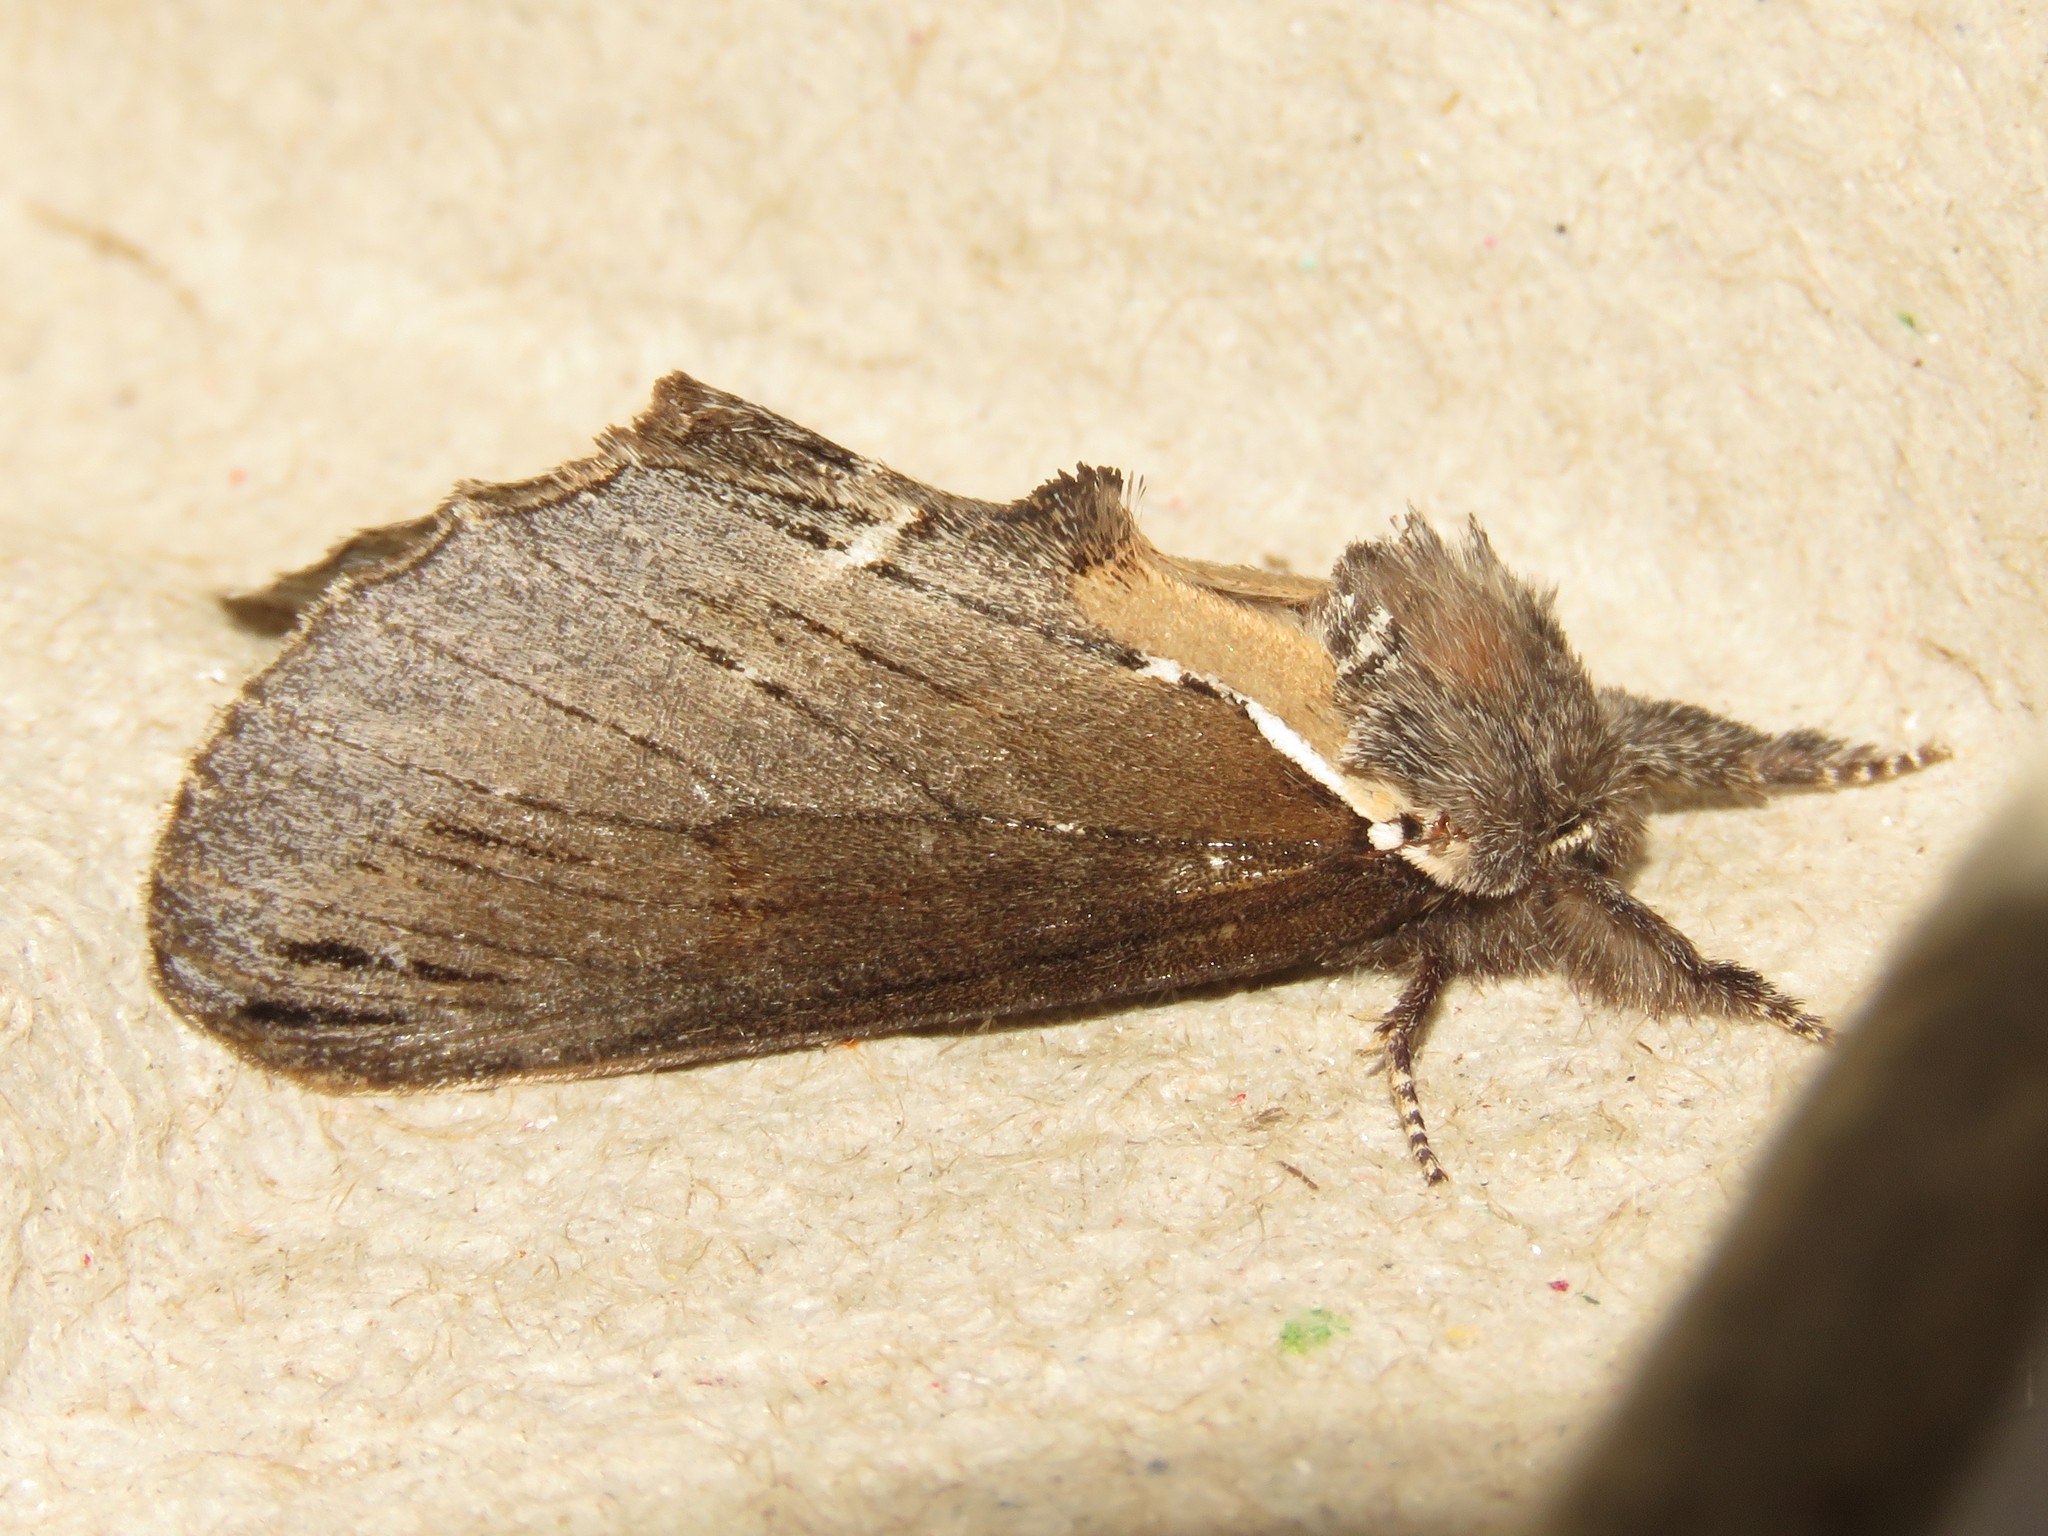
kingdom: Animalia
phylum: Arthropoda
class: Insecta
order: Lepidoptera
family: Notodontidae
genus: Pheosidea
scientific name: Pheosidea elegans
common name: Elegant prominent
